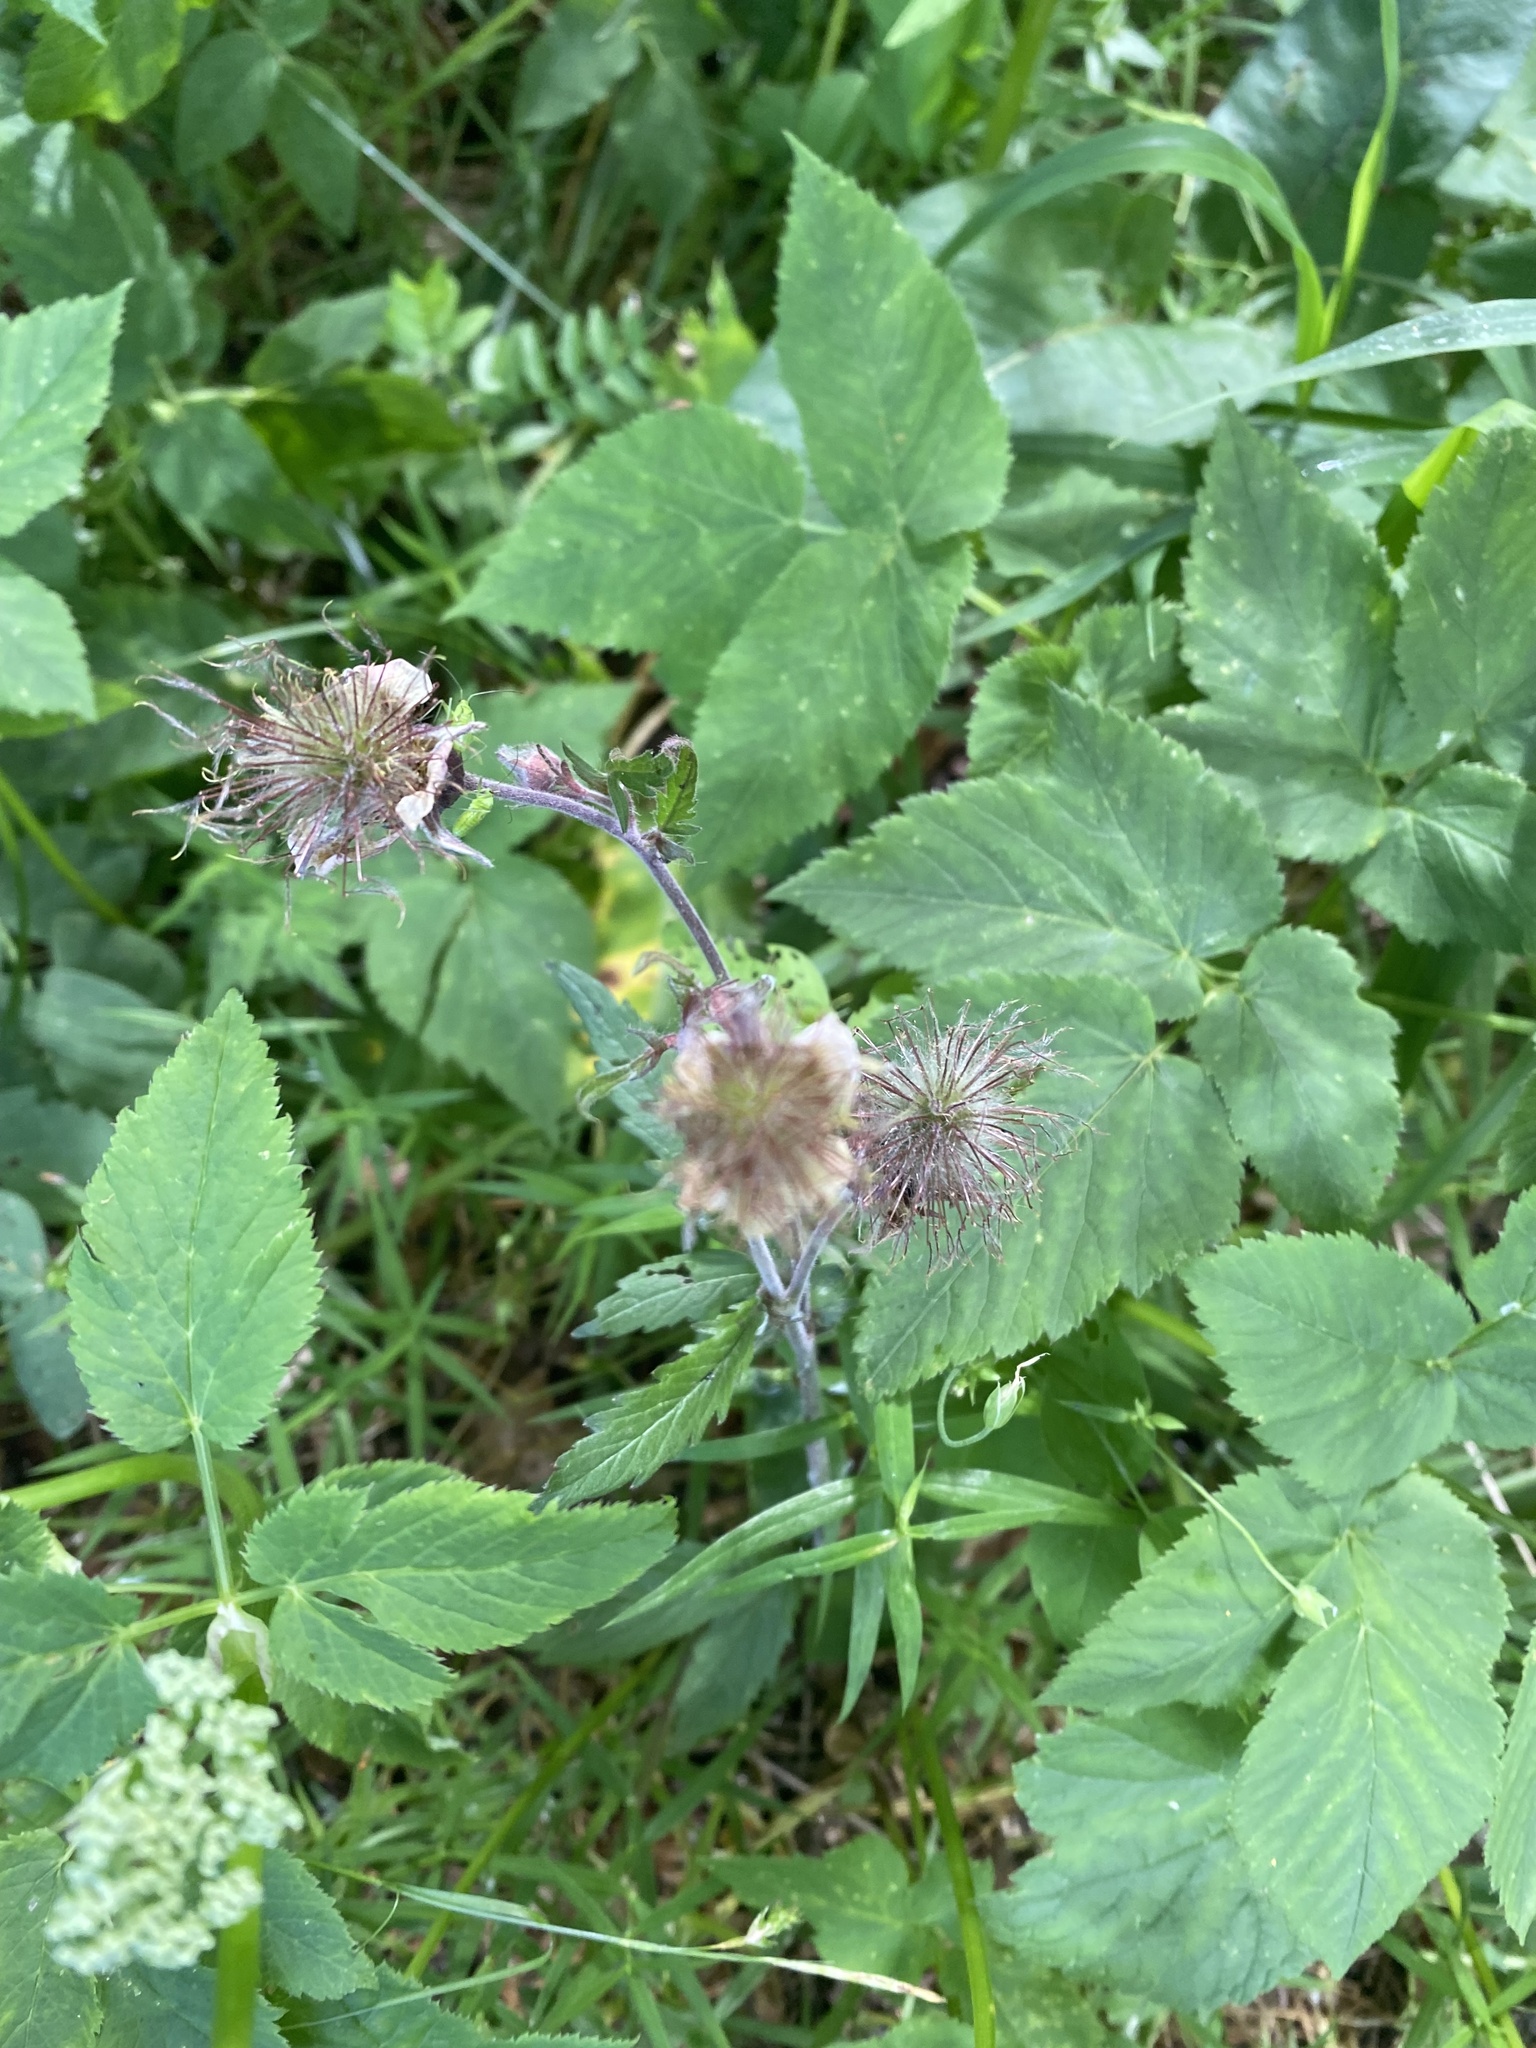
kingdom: Plantae
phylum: Tracheophyta
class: Magnoliopsida
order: Rosales
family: Rosaceae
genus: Geum
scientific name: Geum rivale
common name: Water avens
